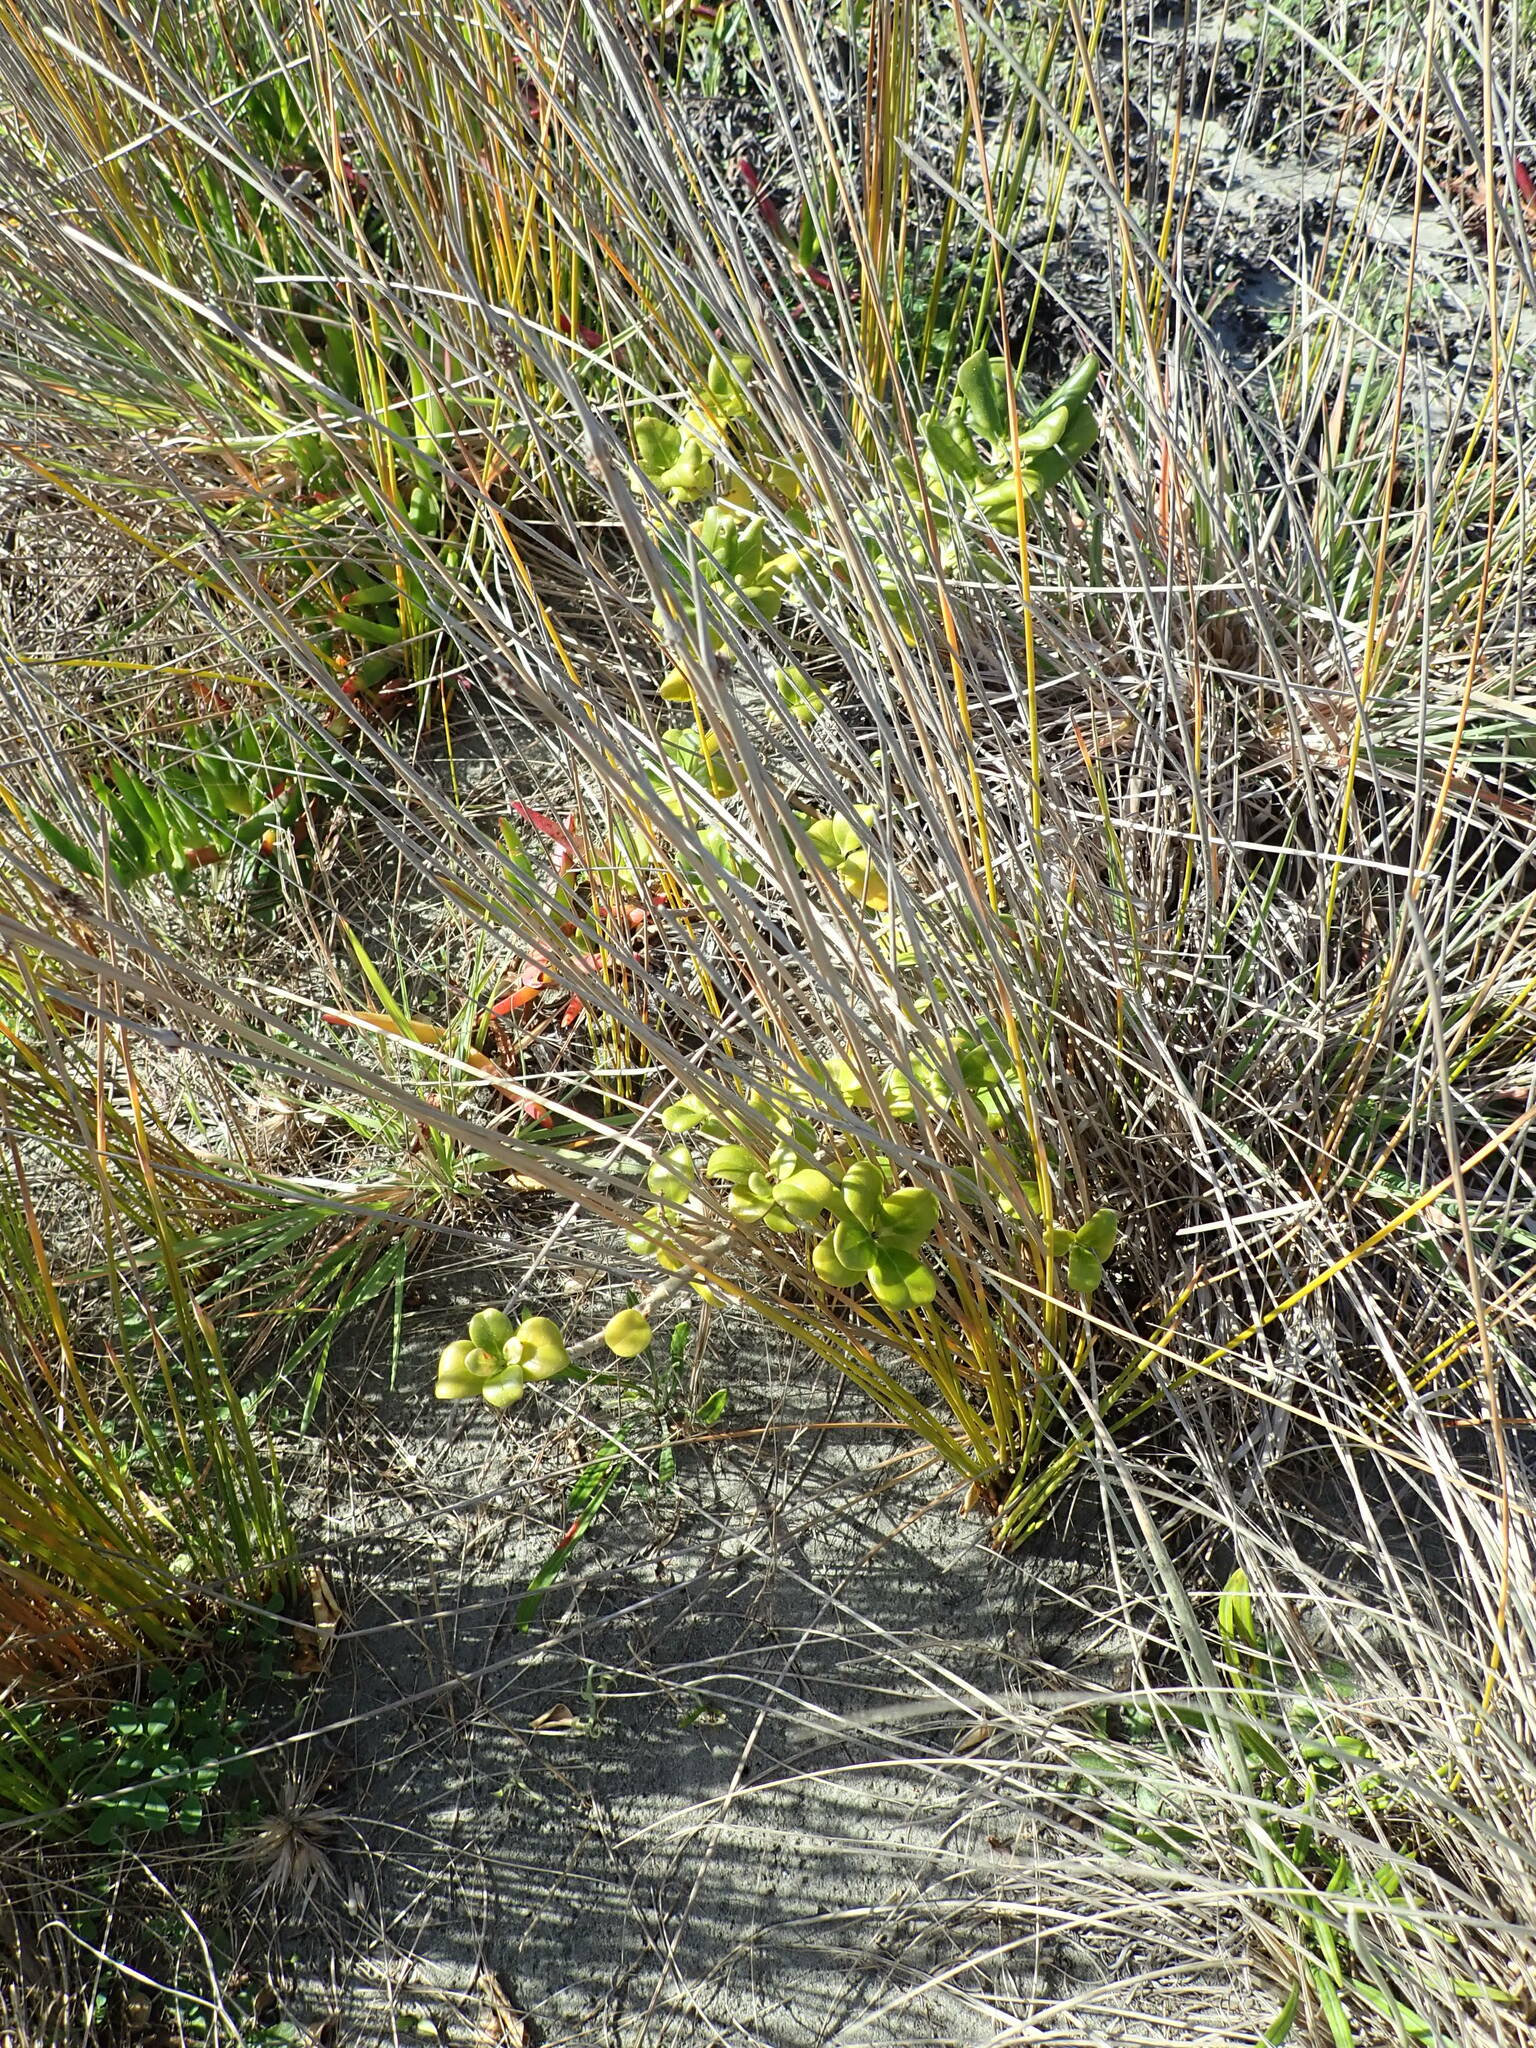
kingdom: Plantae
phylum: Tracheophyta
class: Magnoliopsida
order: Gentianales
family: Rubiaceae
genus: Coprosma
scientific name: Coprosma repens
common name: Tree bedstraw
